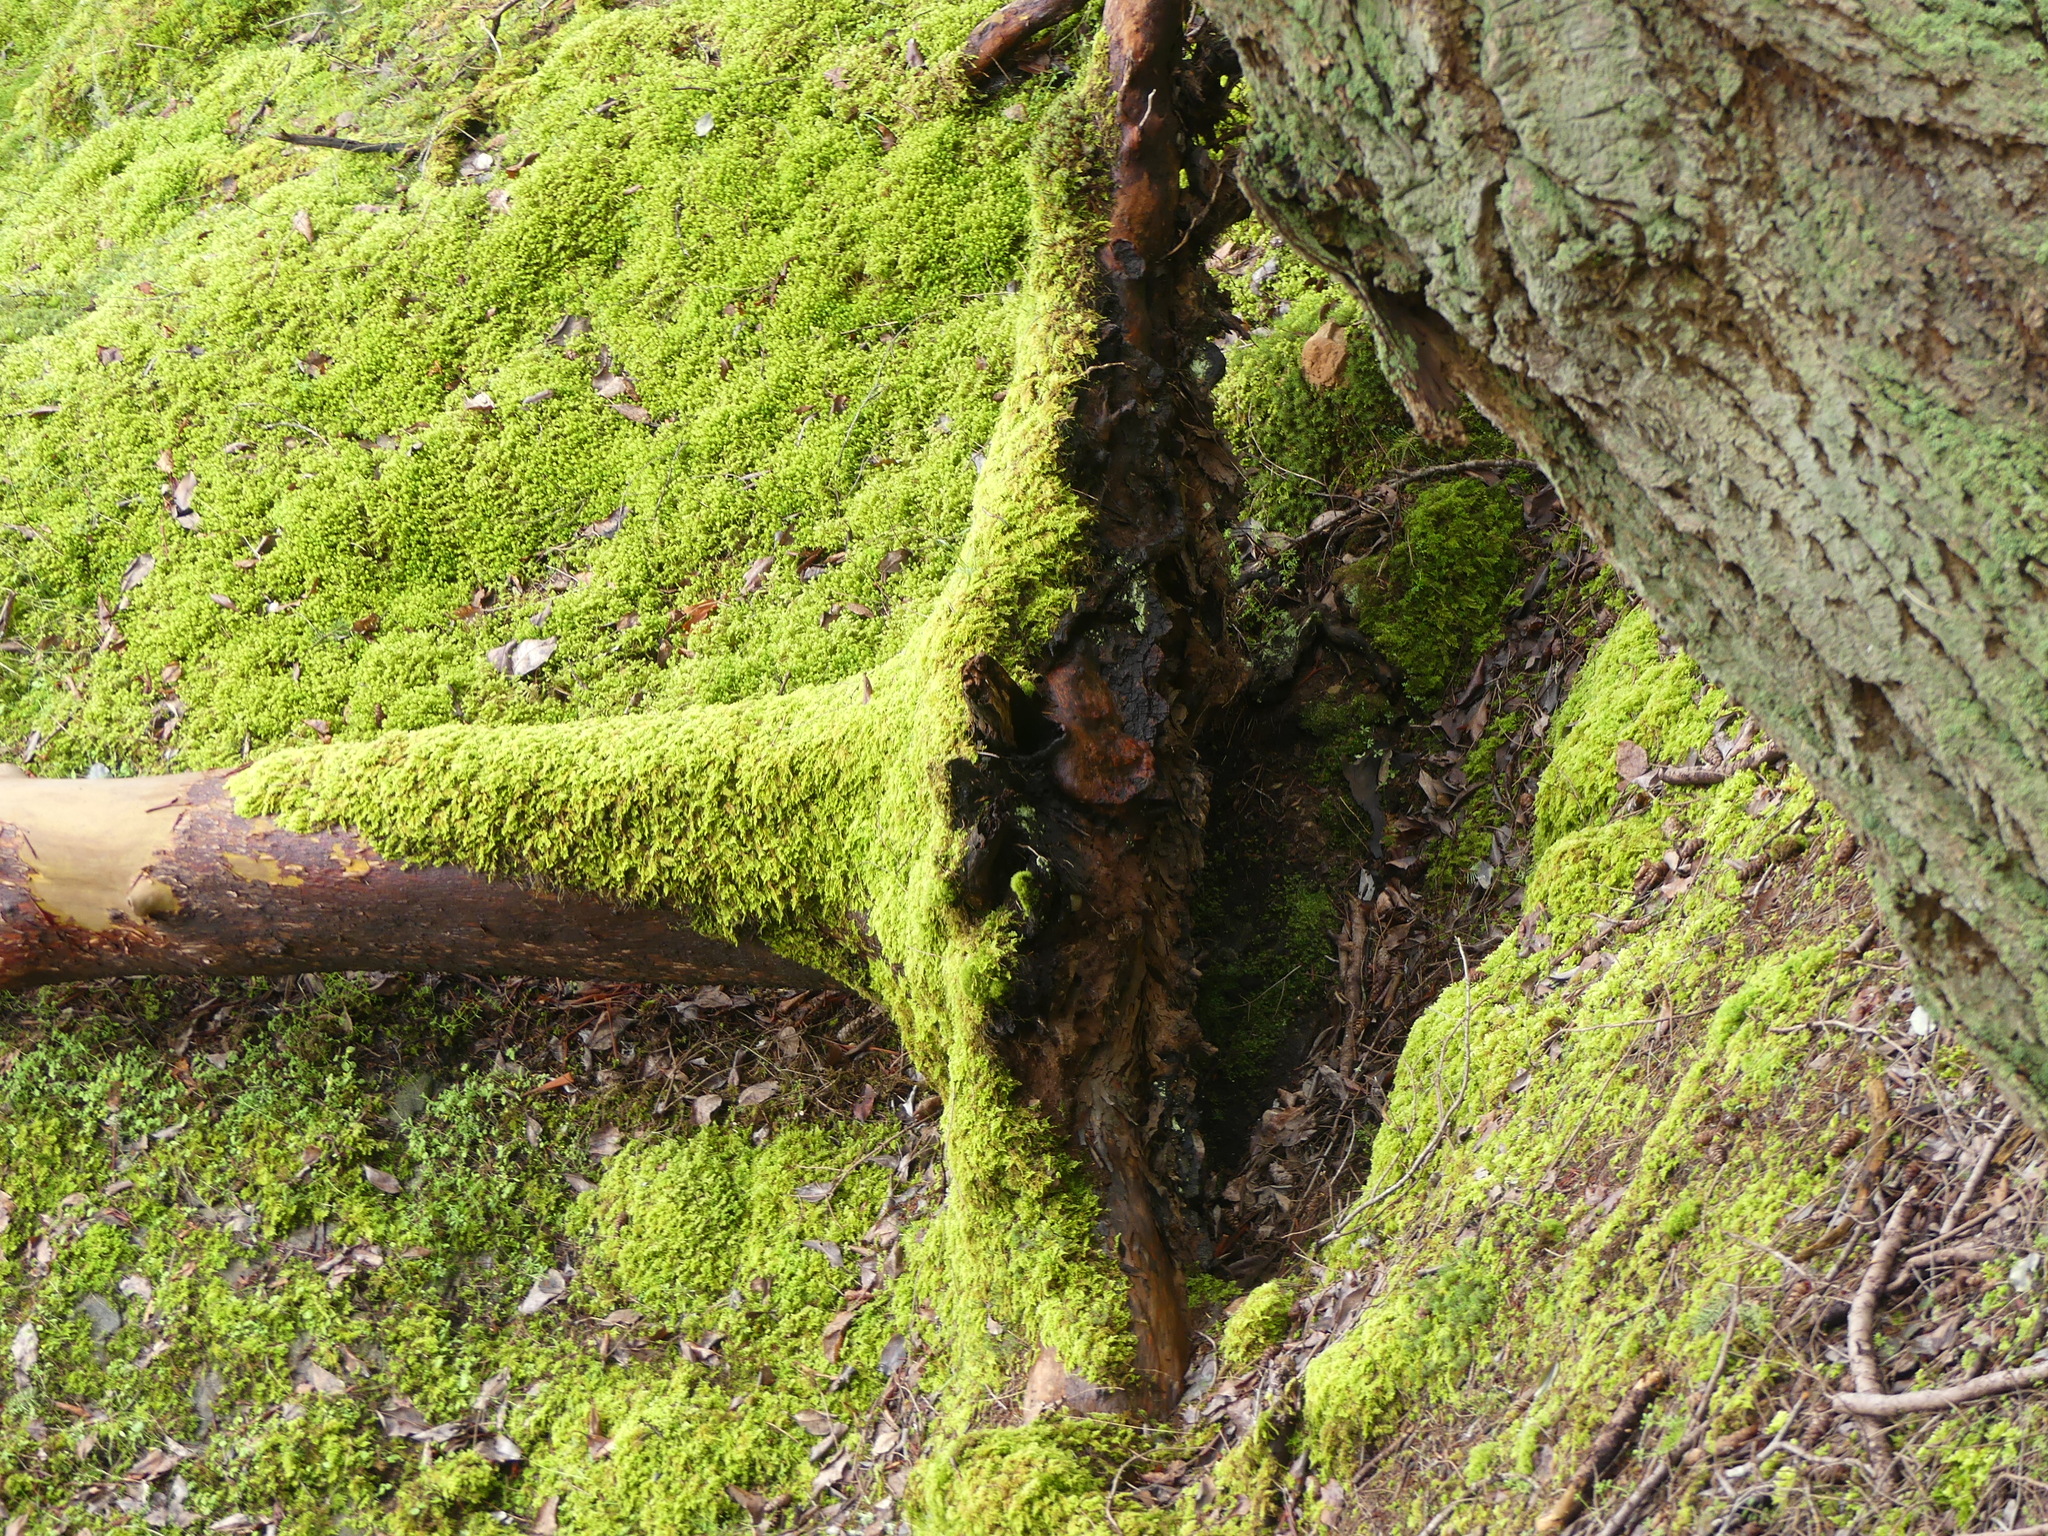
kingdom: Plantae
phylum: Tracheophyta
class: Magnoliopsida
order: Ericales
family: Ericaceae
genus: Arbutus
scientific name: Arbutus menziesii
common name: Pacific madrone
